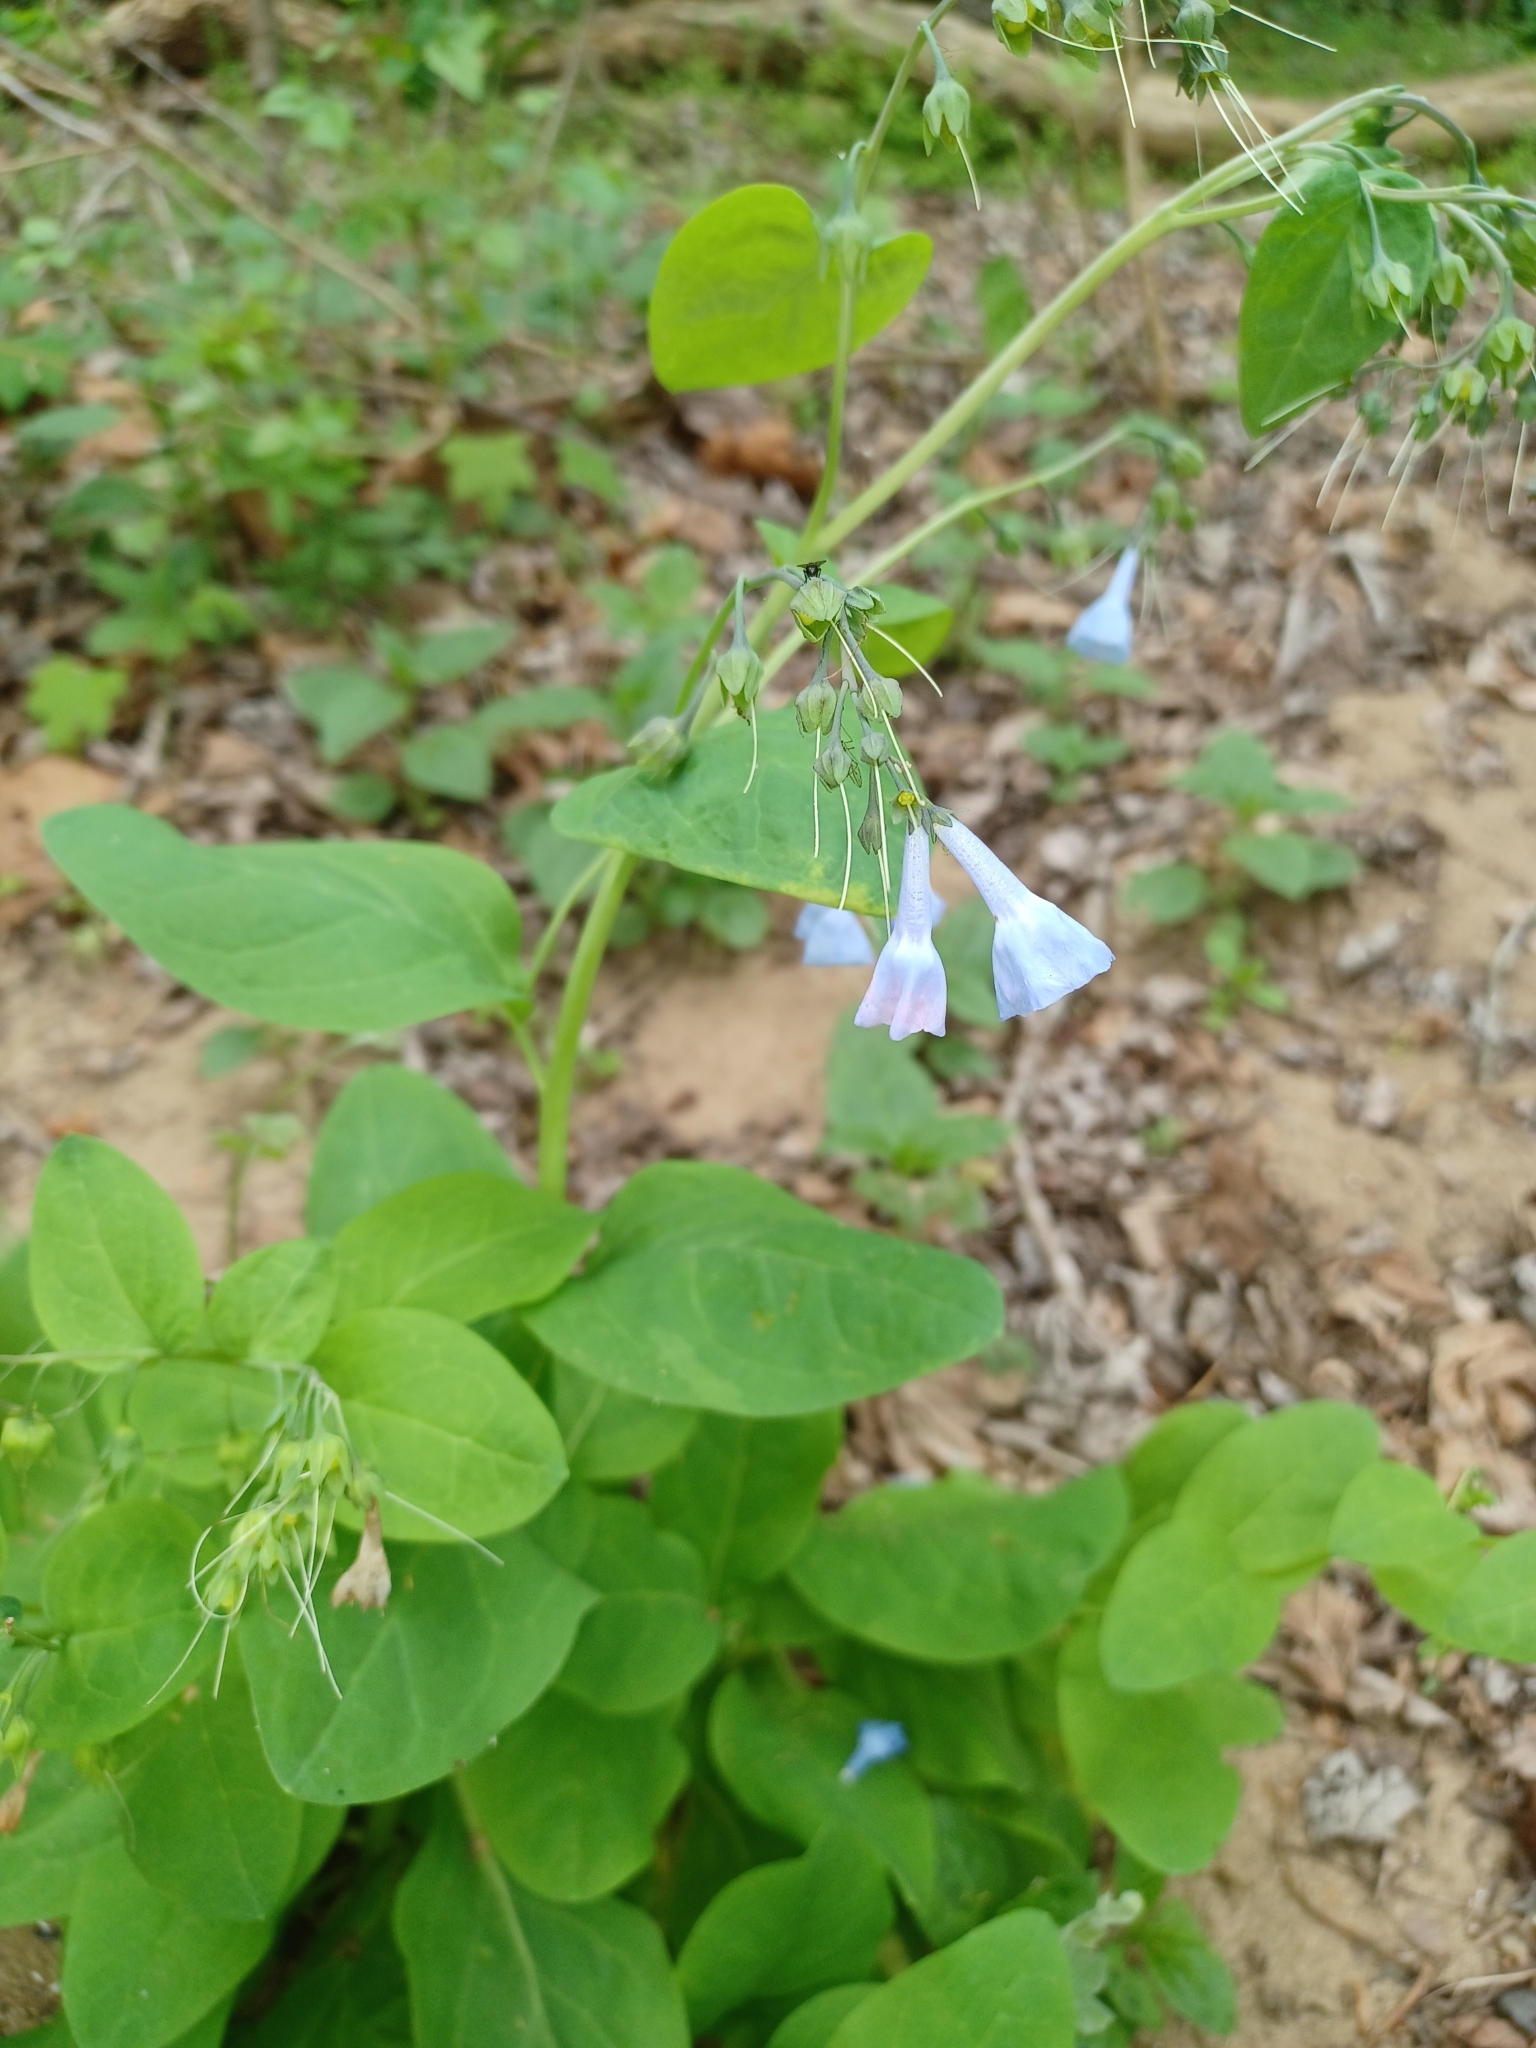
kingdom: Plantae
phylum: Tracheophyta
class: Magnoliopsida
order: Boraginales
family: Boraginaceae
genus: Mertensia
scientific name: Mertensia virginica
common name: Virginia bluebells
